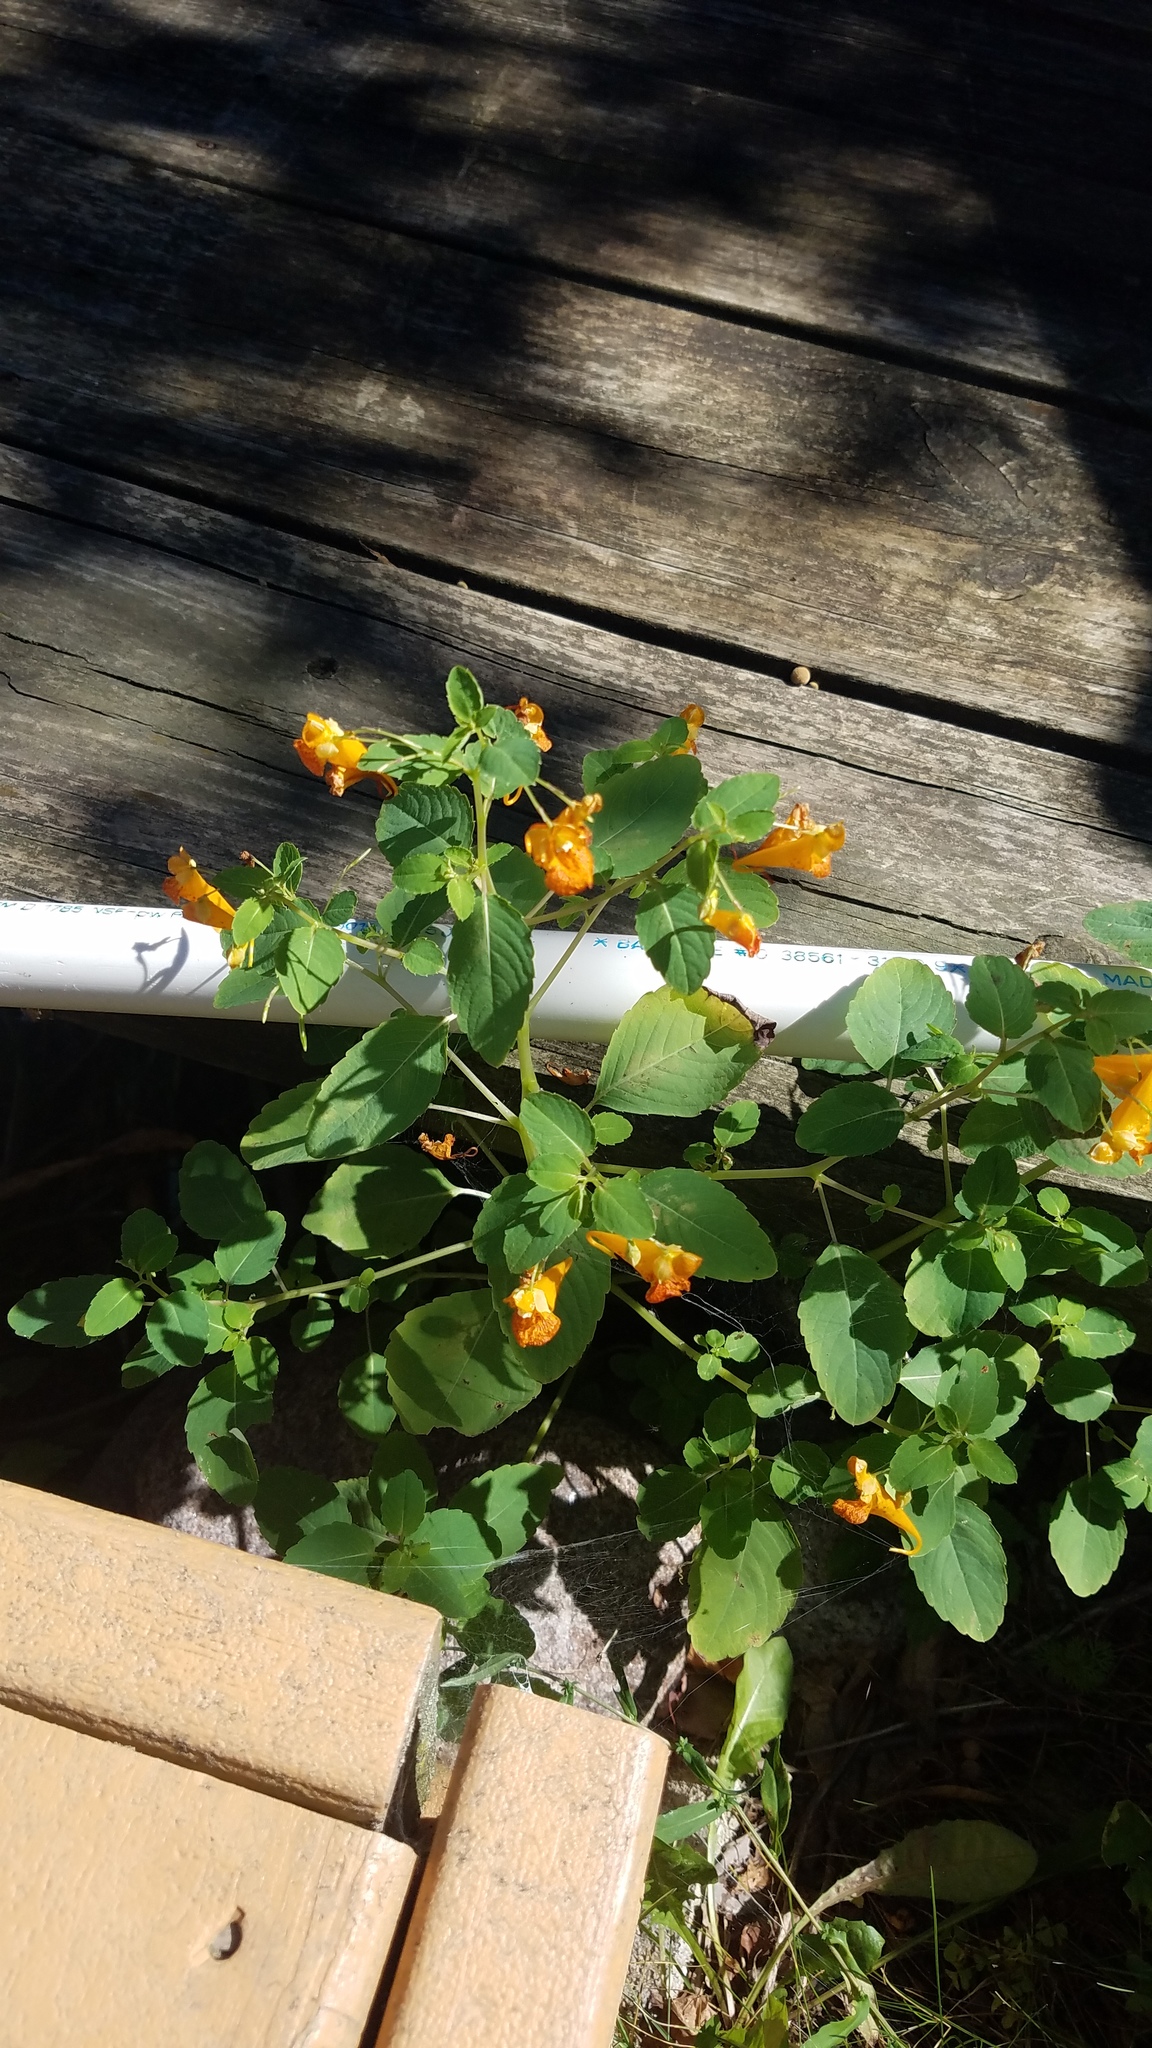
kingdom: Plantae
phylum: Tracheophyta
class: Magnoliopsida
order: Ericales
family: Balsaminaceae
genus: Impatiens
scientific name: Impatiens capensis
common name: Orange balsam
